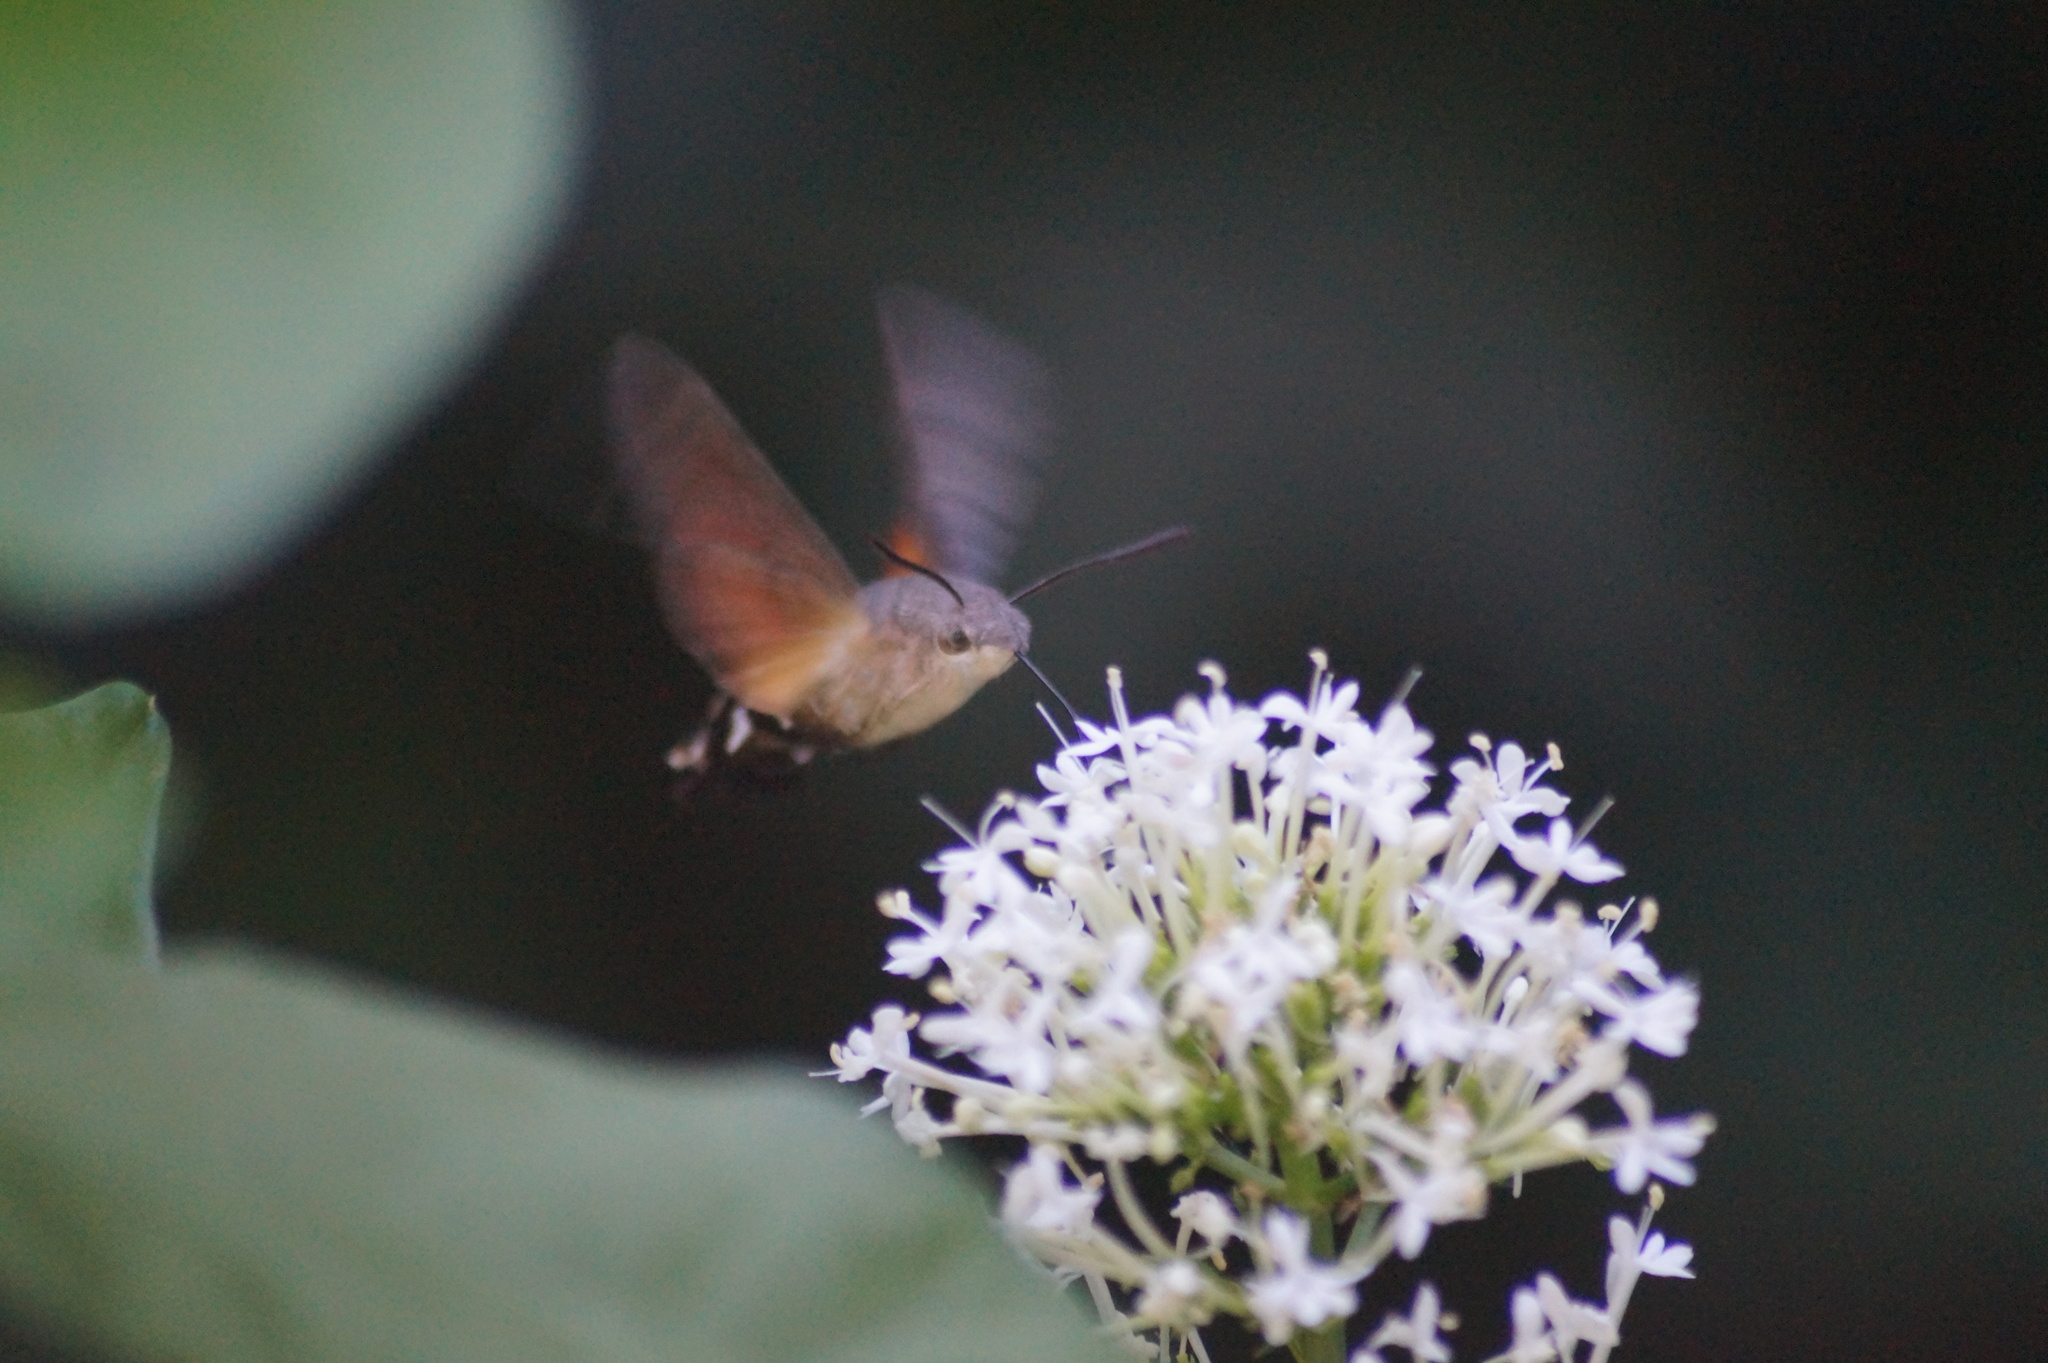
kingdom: Animalia
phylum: Arthropoda
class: Insecta
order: Lepidoptera
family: Sphingidae
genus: Macroglossum
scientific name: Macroglossum stellatarum
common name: Humming-bird hawk-moth
